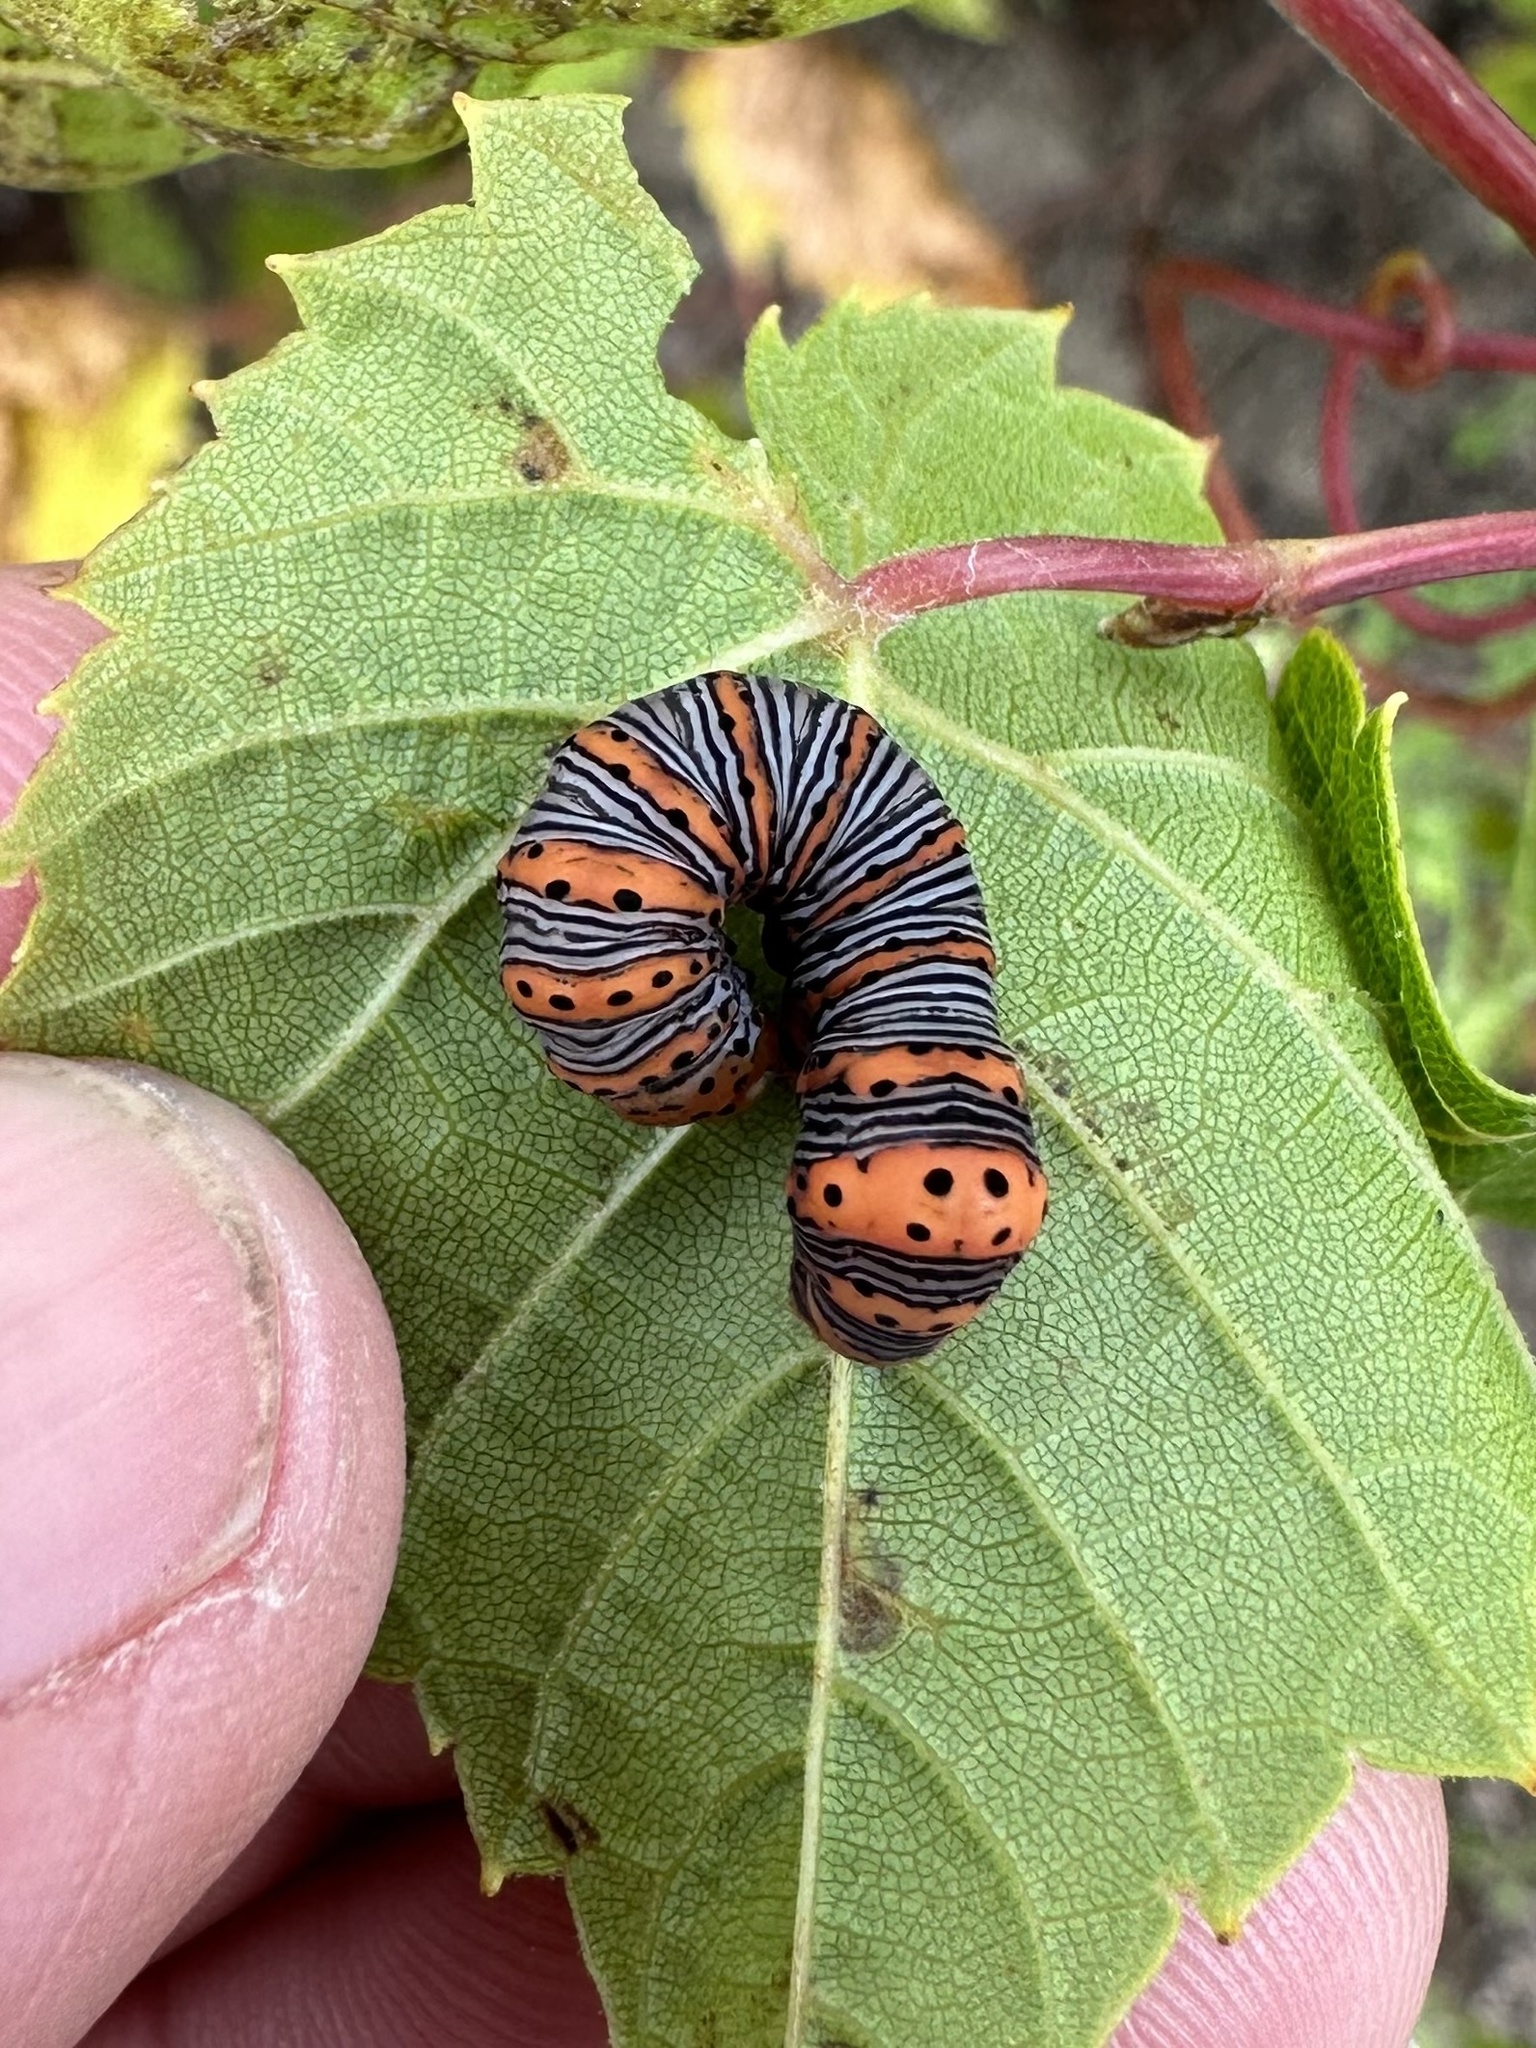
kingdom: Animalia
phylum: Arthropoda
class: Insecta
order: Lepidoptera
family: Noctuidae
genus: Eudryas
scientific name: Eudryas grata
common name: Beautiful wood-nymph
